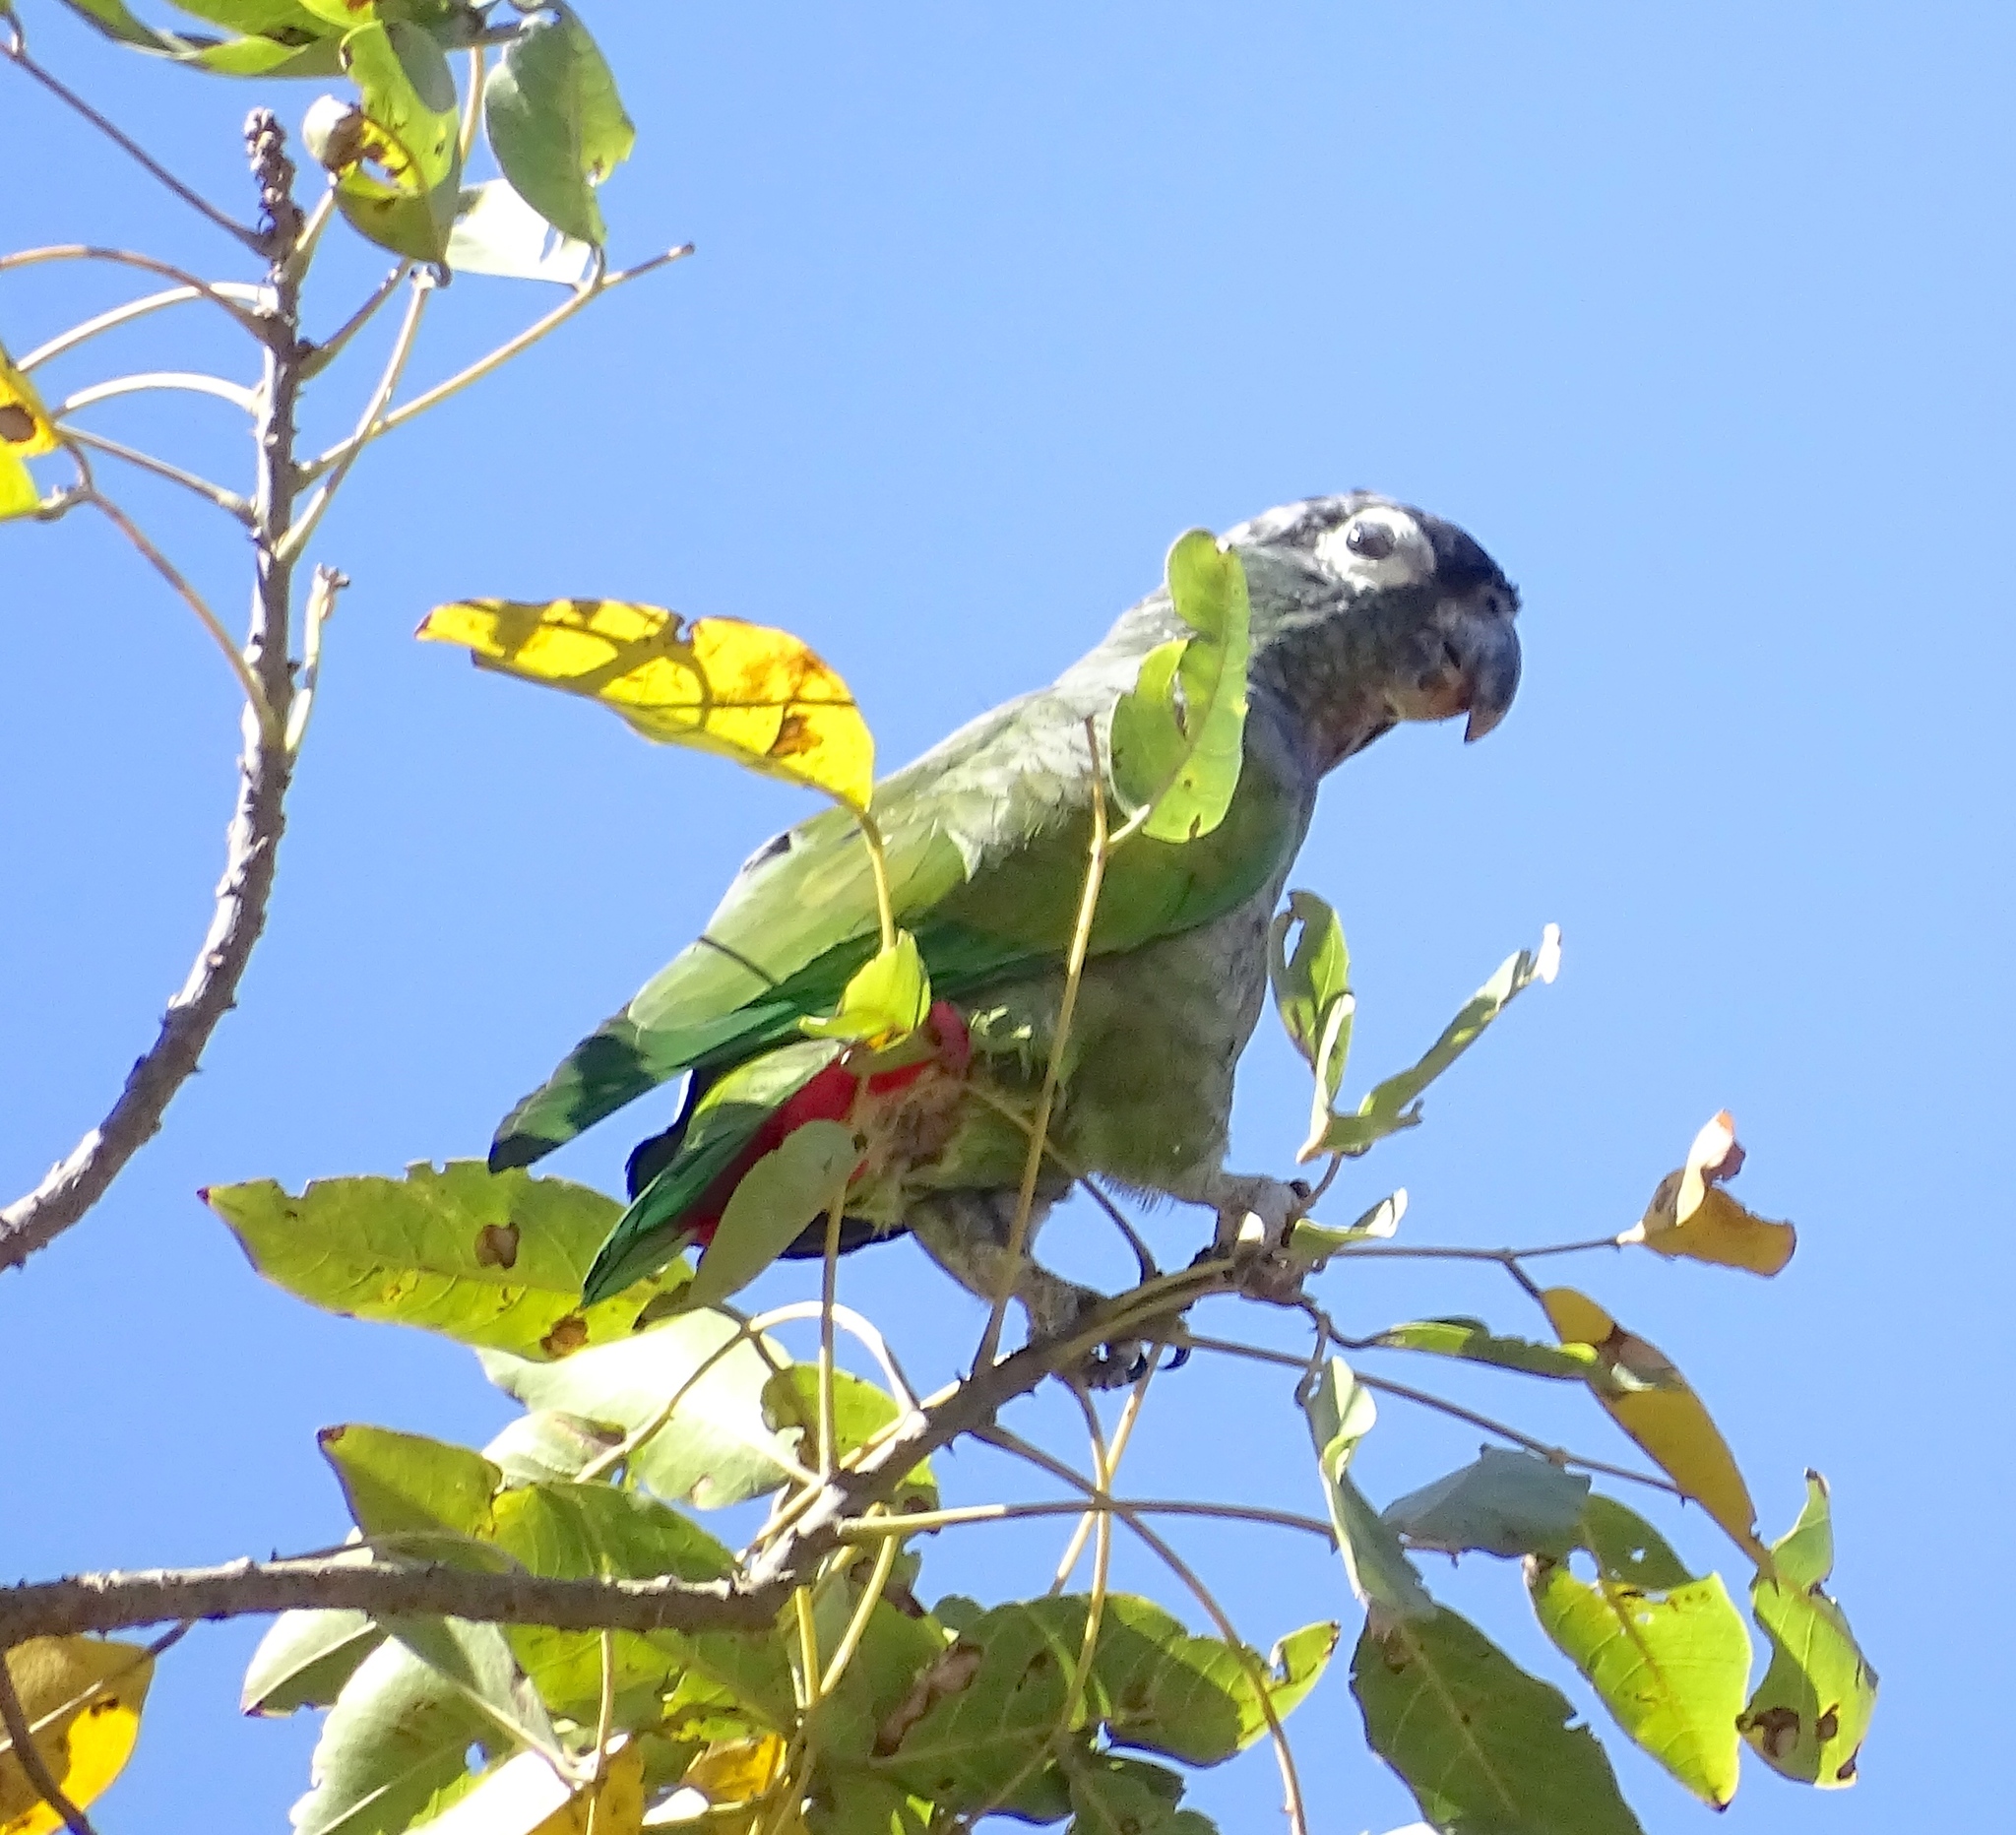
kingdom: Animalia
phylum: Chordata
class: Aves
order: Psittaciformes
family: Psittacidae
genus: Pionus
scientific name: Pionus maximiliani
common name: Scaly-headed parrot
